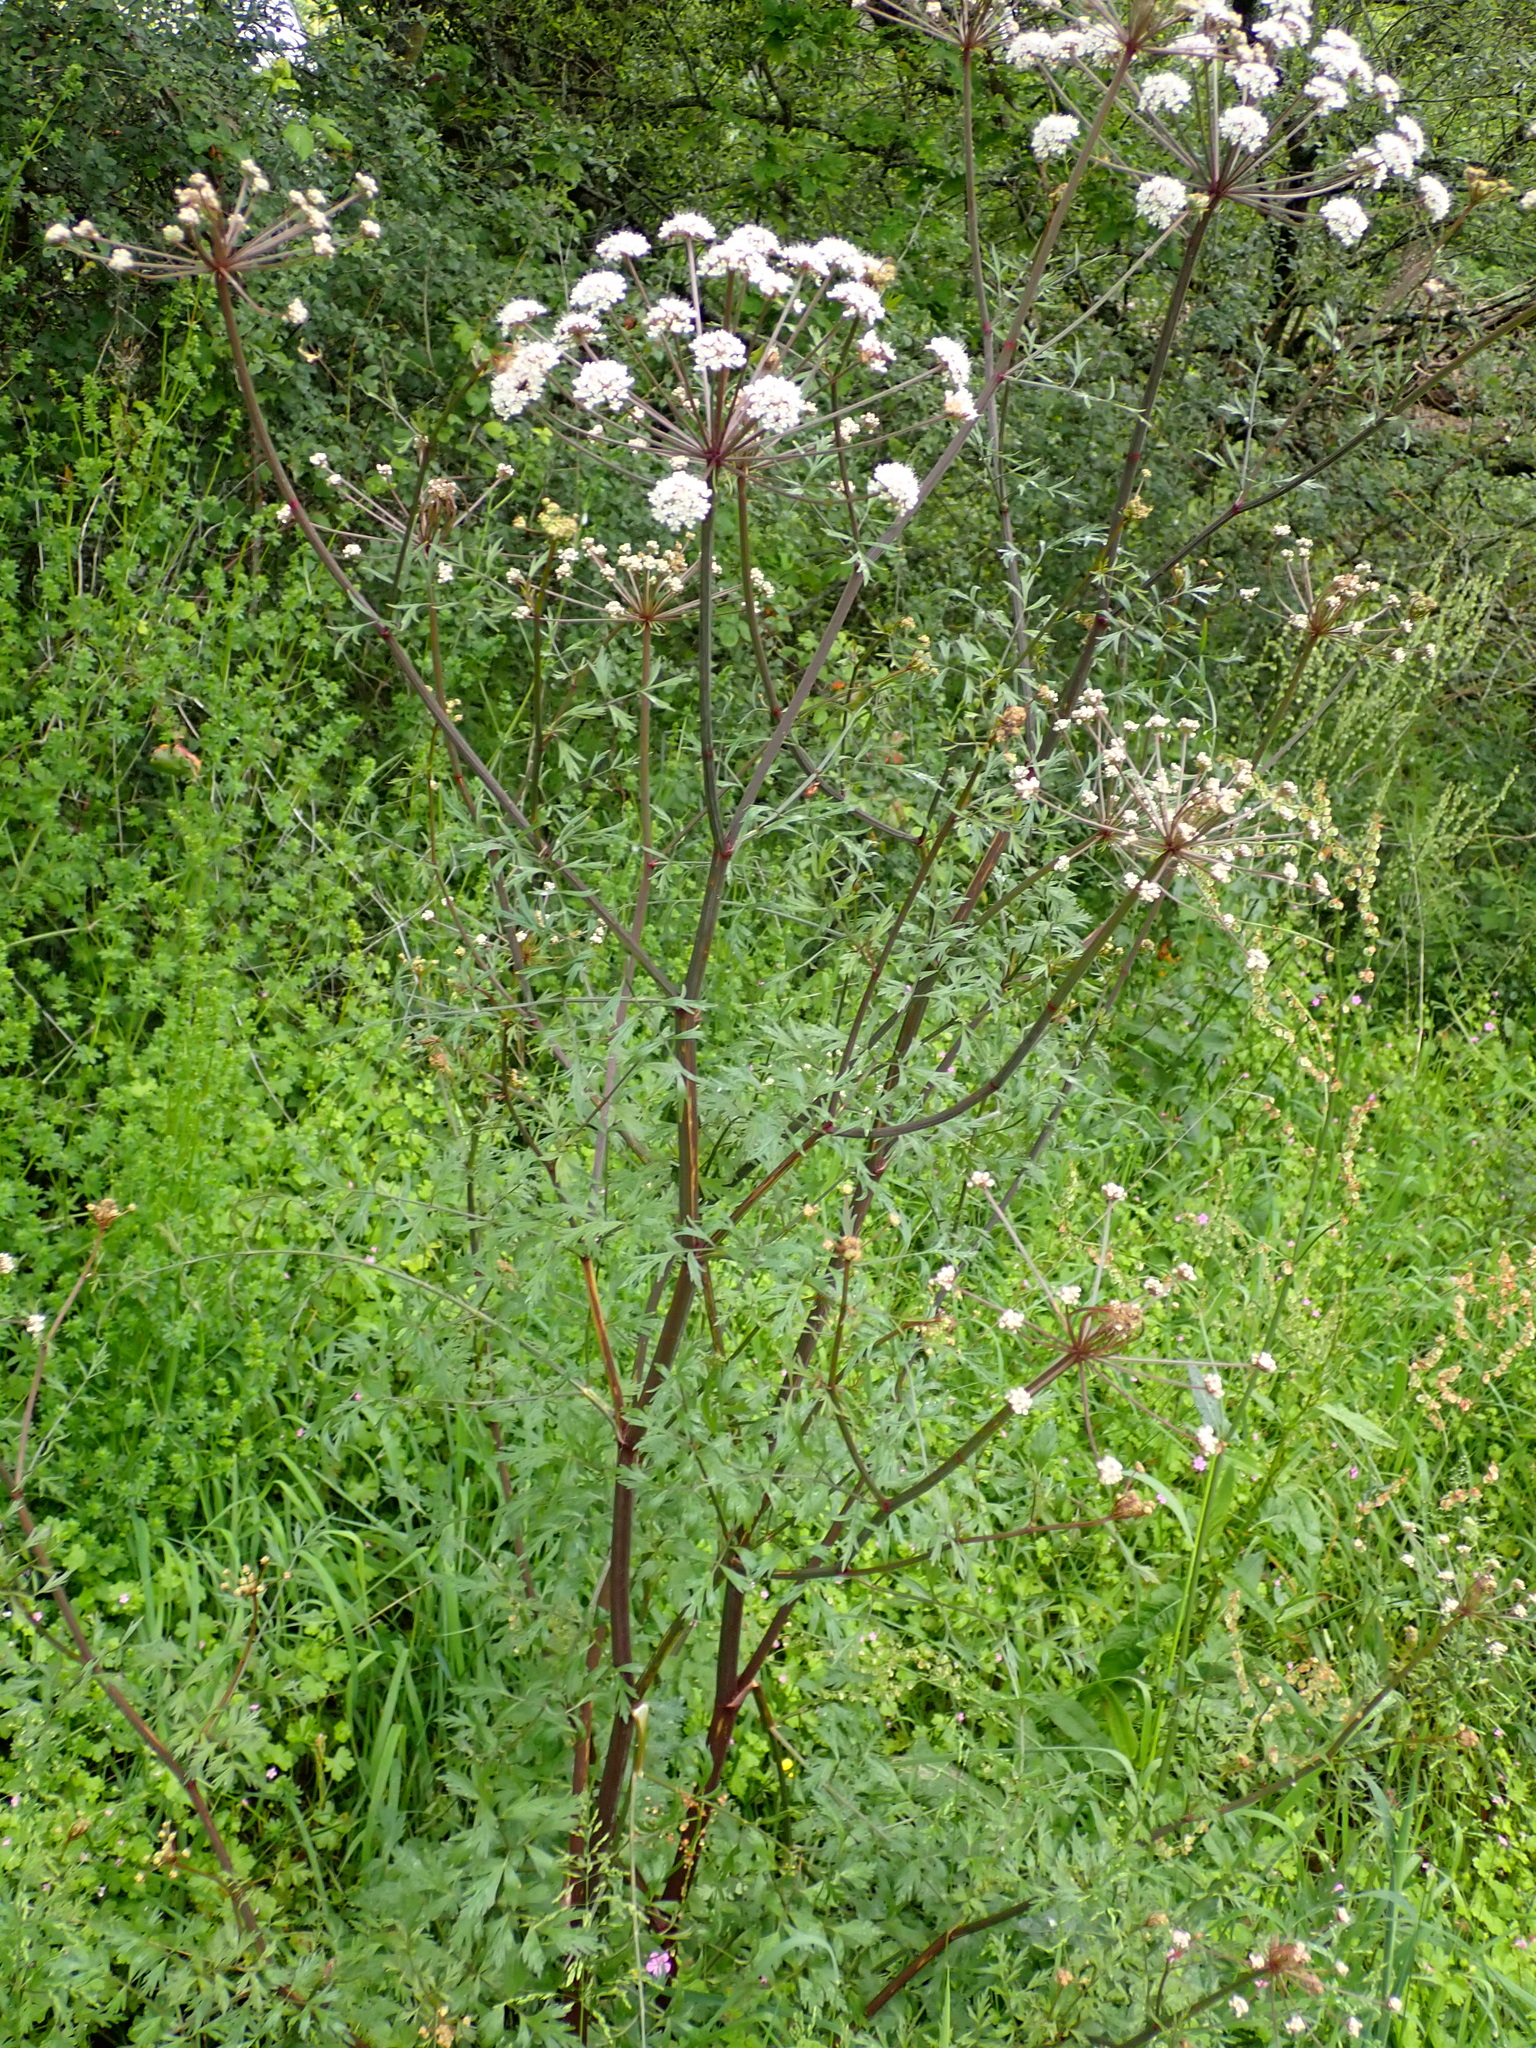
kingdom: Plantae
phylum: Tracheophyta
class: Magnoliopsida
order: Apiales
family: Apiaceae
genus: Oenanthe
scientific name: Oenanthe crocata
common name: Hemlock water-dropwort
